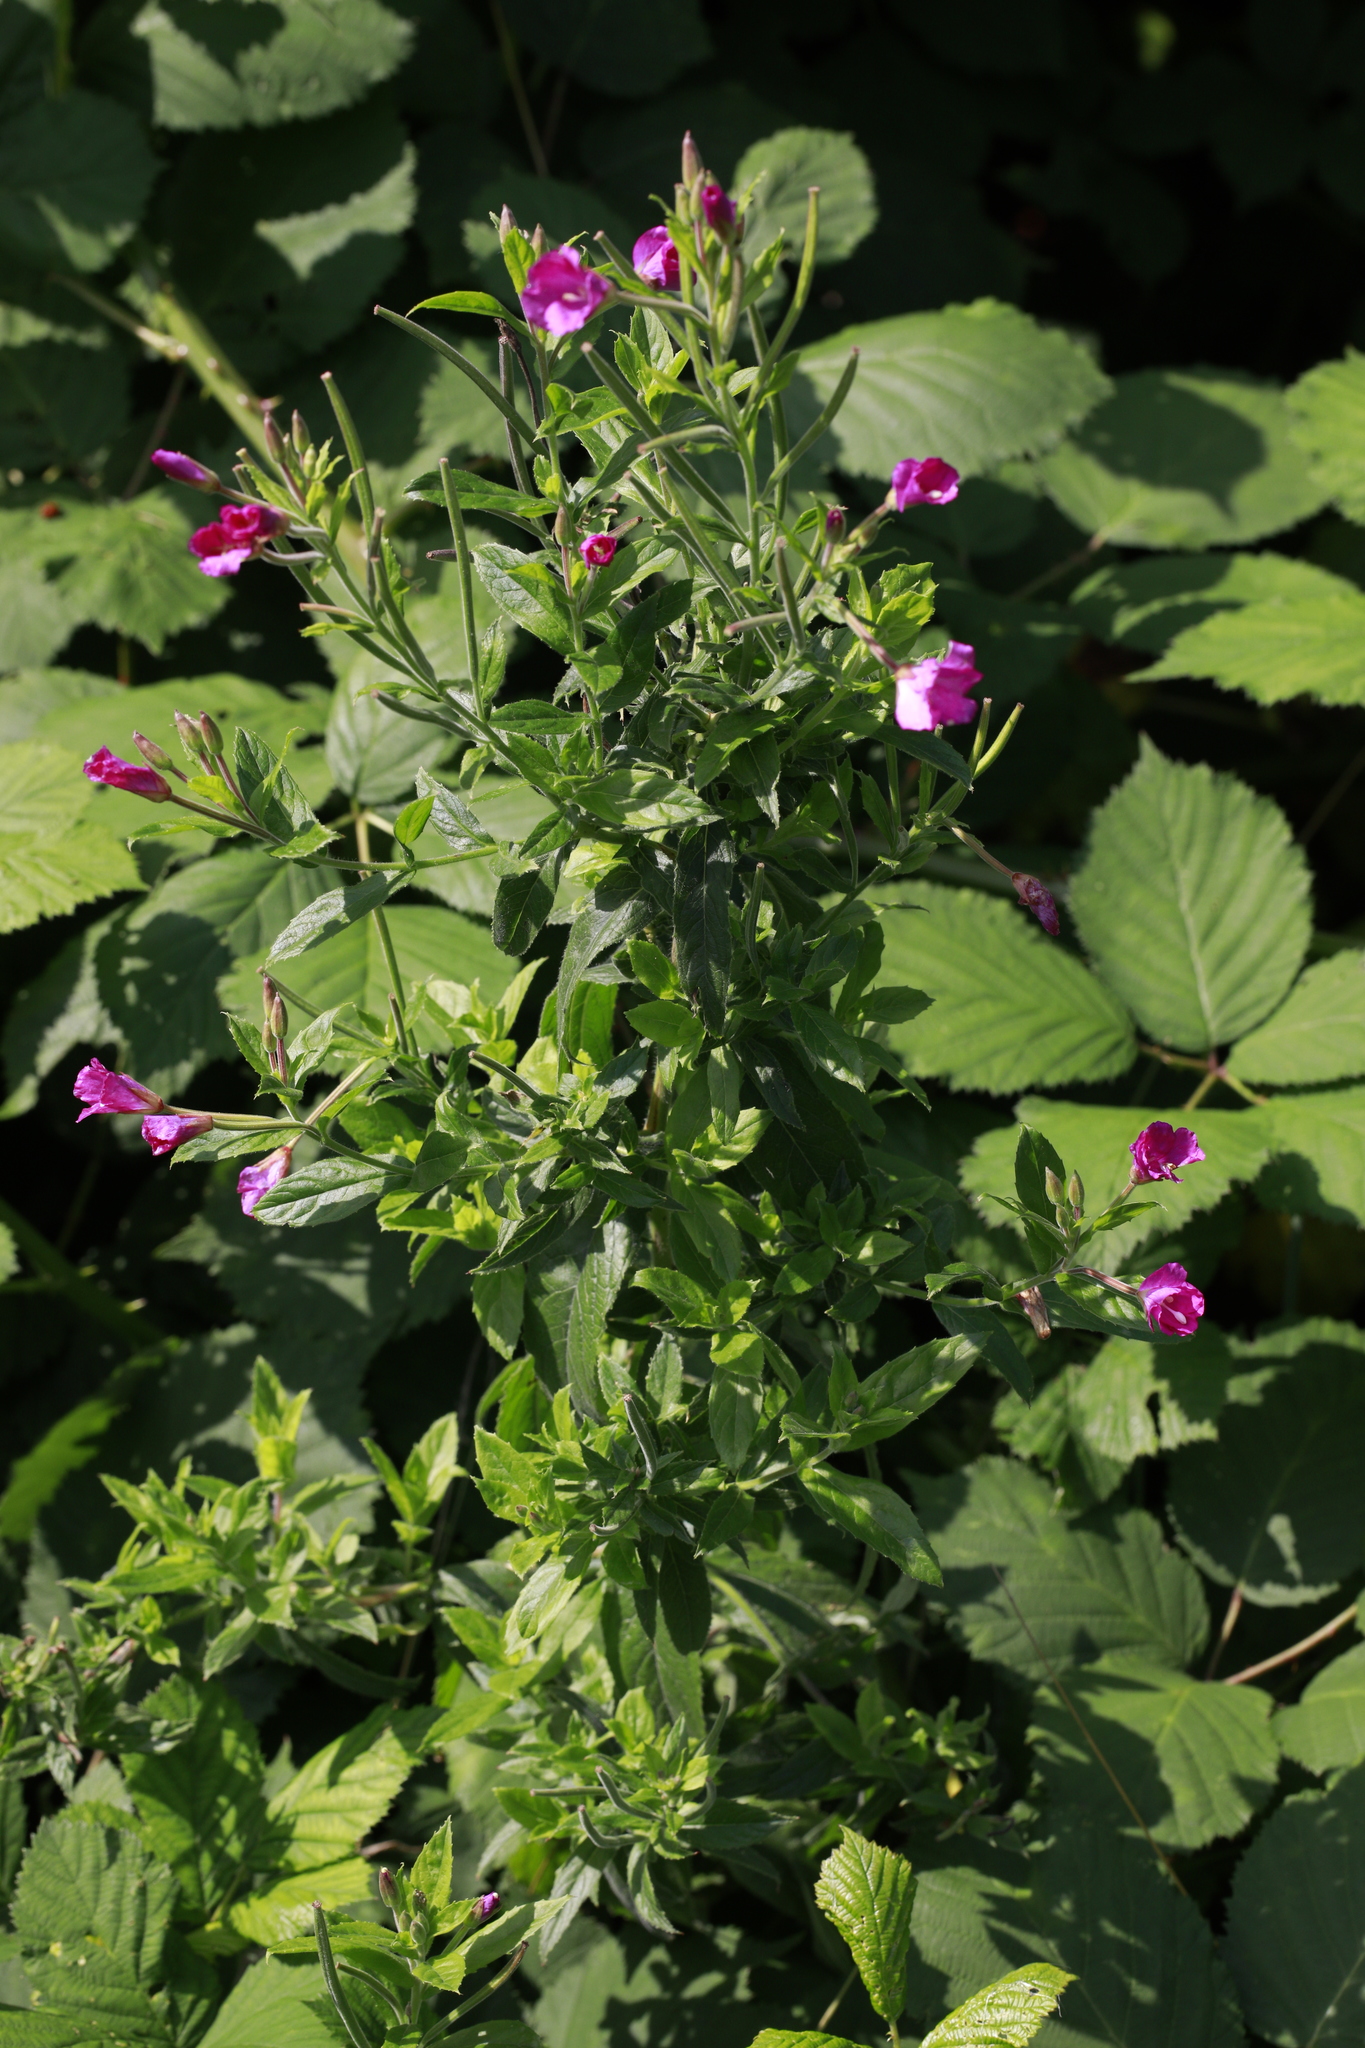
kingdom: Plantae
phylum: Tracheophyta
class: Magnoliopsida
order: Myrtales
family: Onagraceae
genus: Epilobium
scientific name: Epilobium hirsutum
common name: Great willowherb
